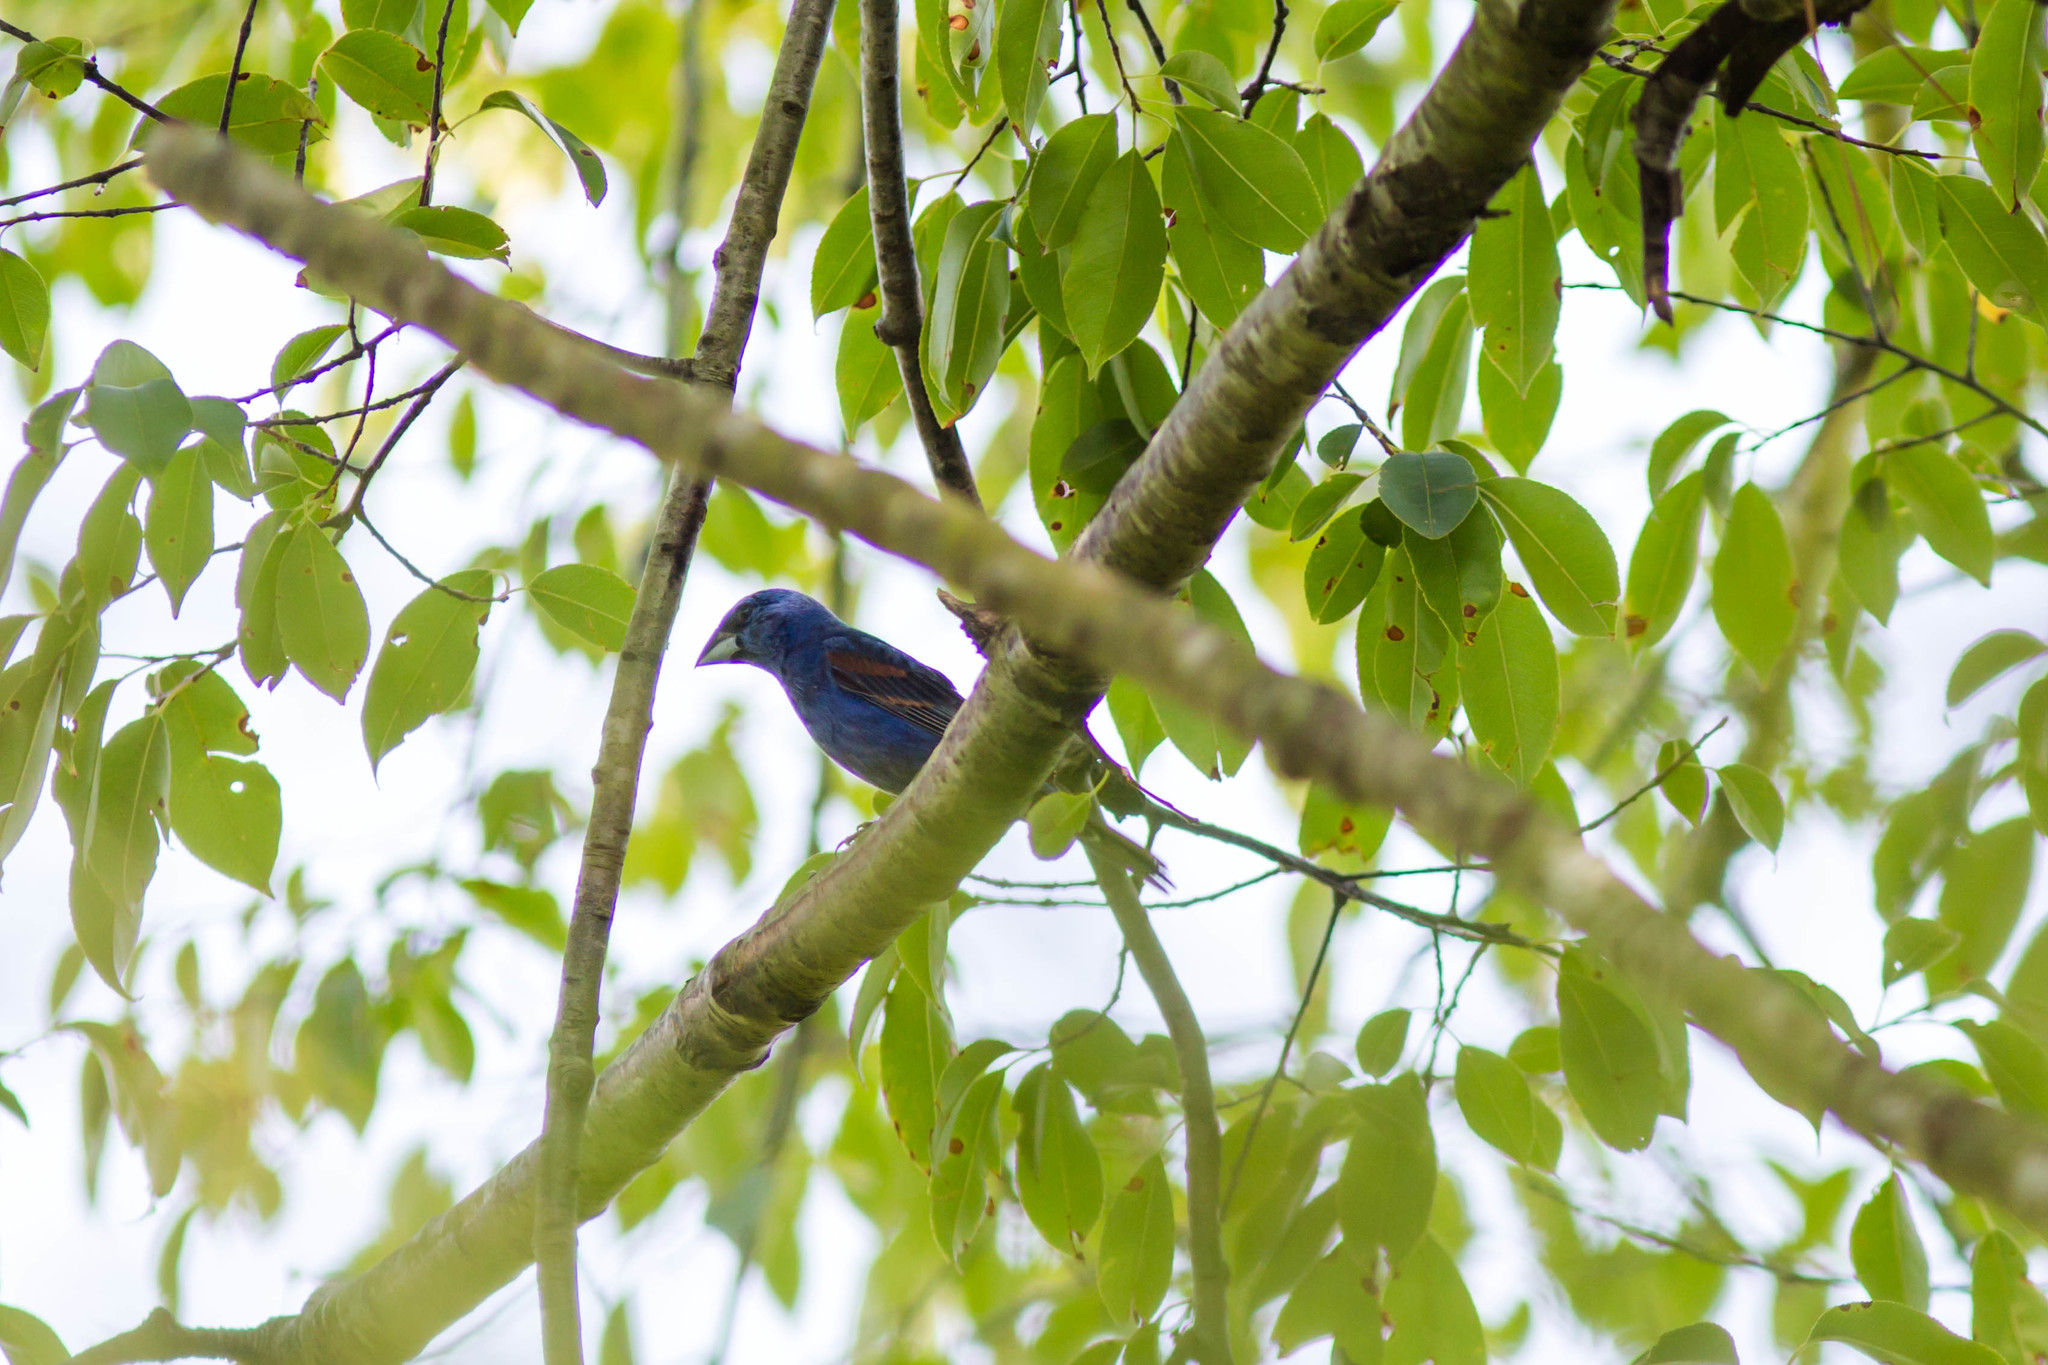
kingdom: Animalia
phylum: Chordata
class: Aves
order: Passeriformes
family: Cardinalidae
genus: Passerina
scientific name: Passerina caerulea
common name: Blue grosbeak
